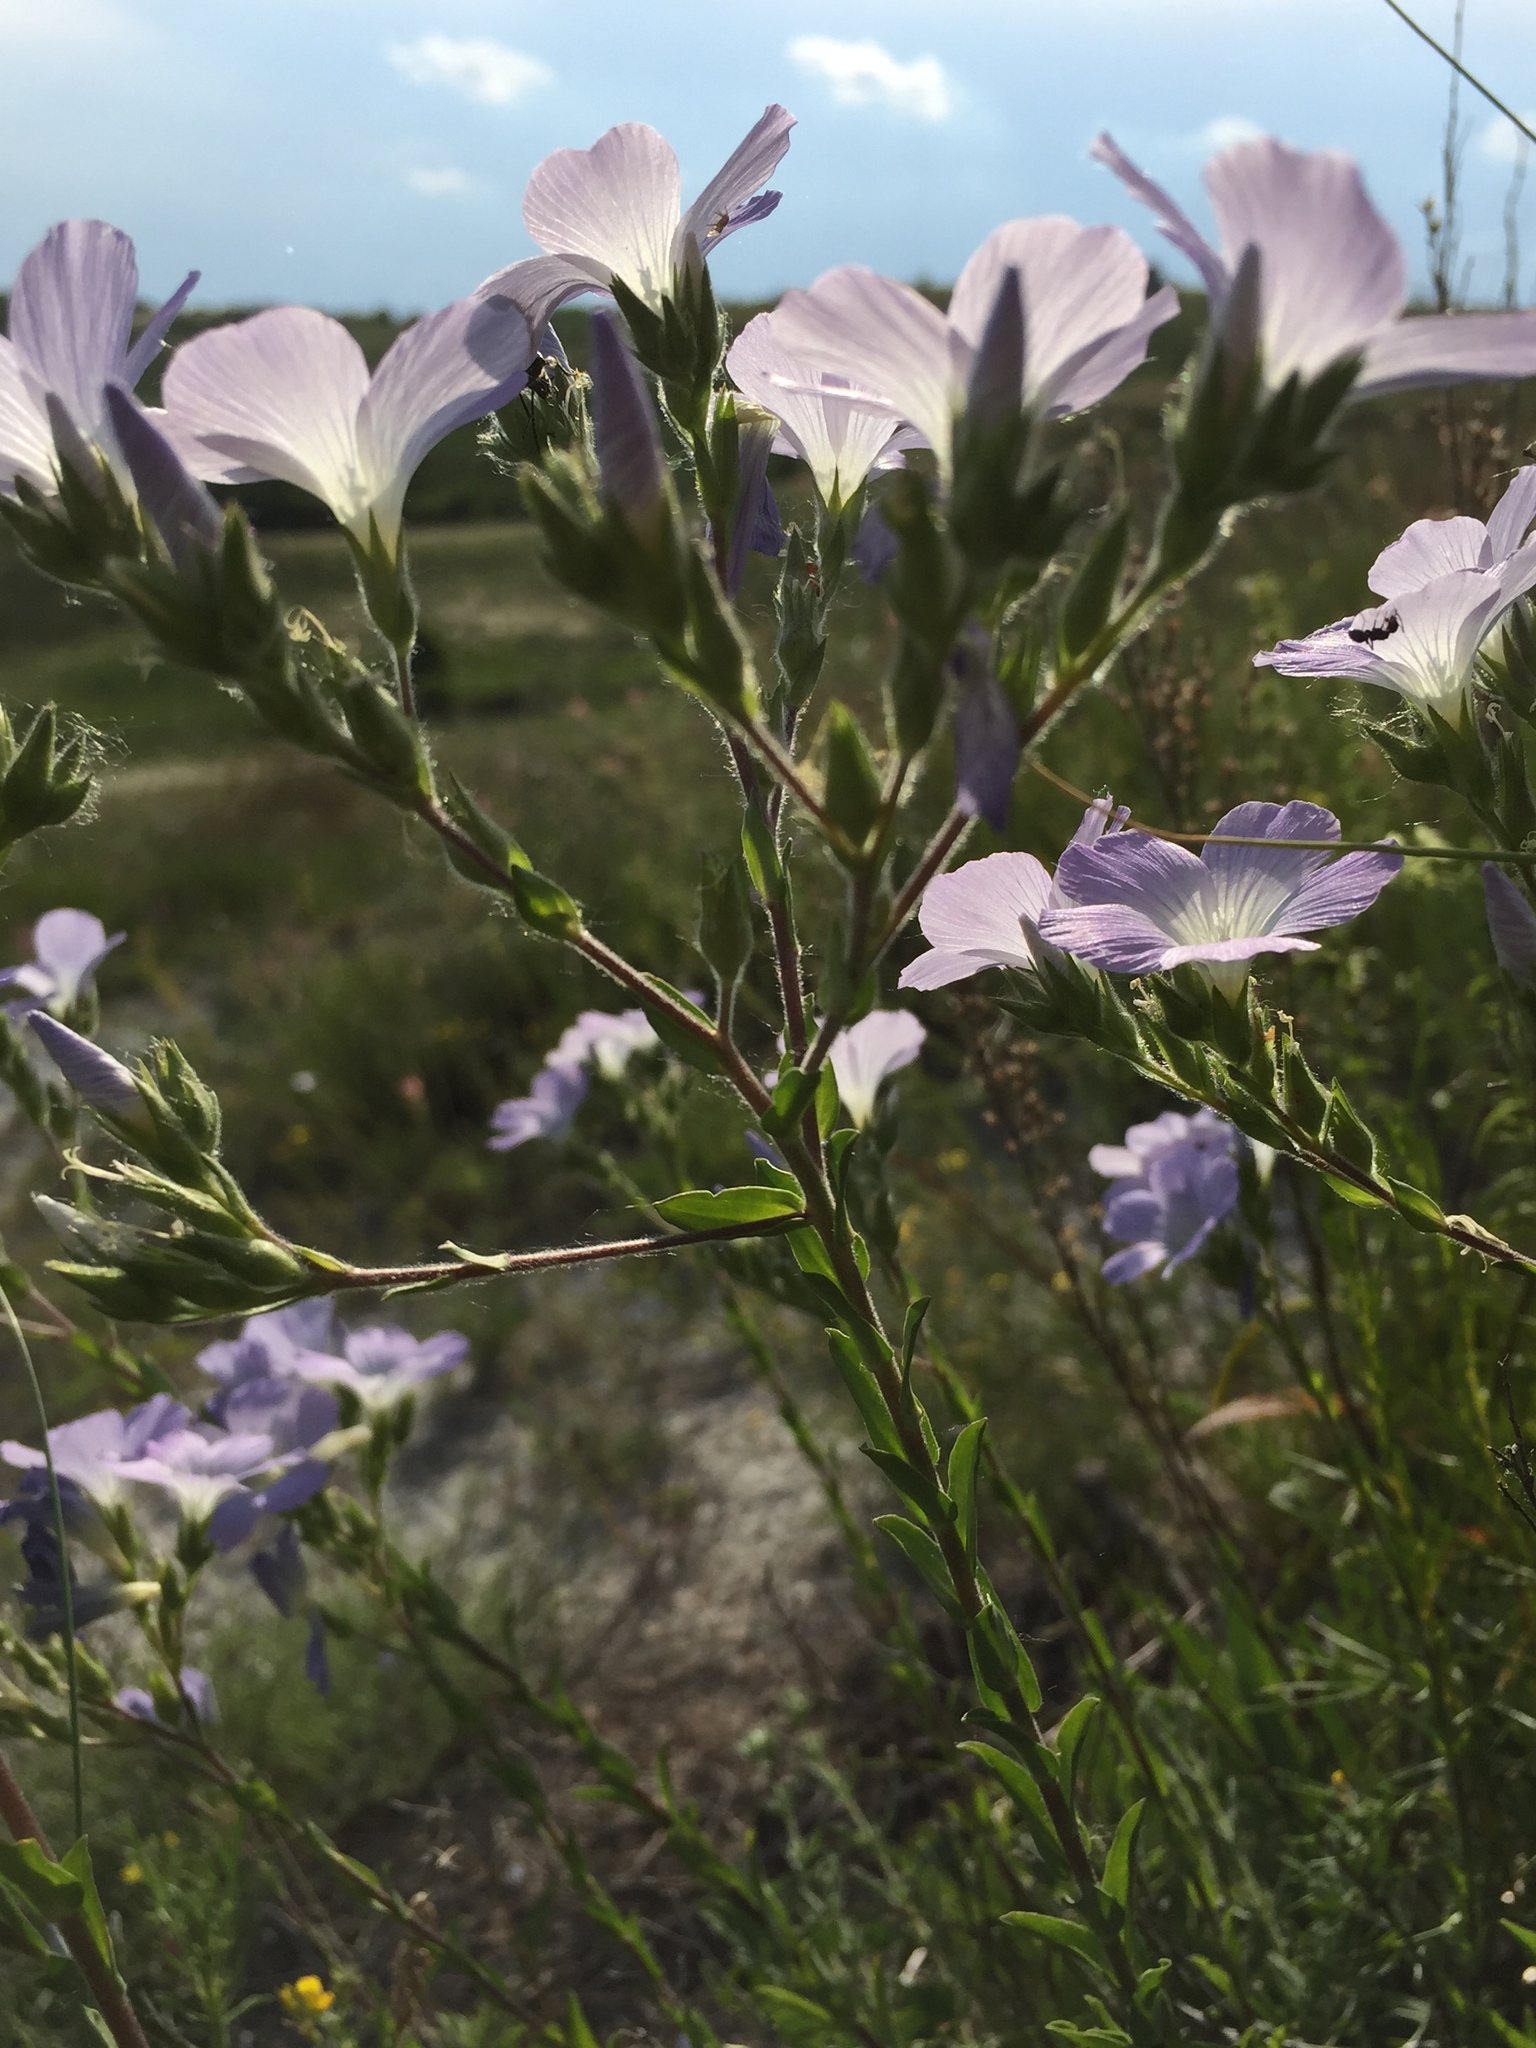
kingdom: Plantae
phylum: Tracheophyta
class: Magnoliopsida
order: Malpighiales
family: Linaceae
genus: Linum
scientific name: Linum hirsutum
